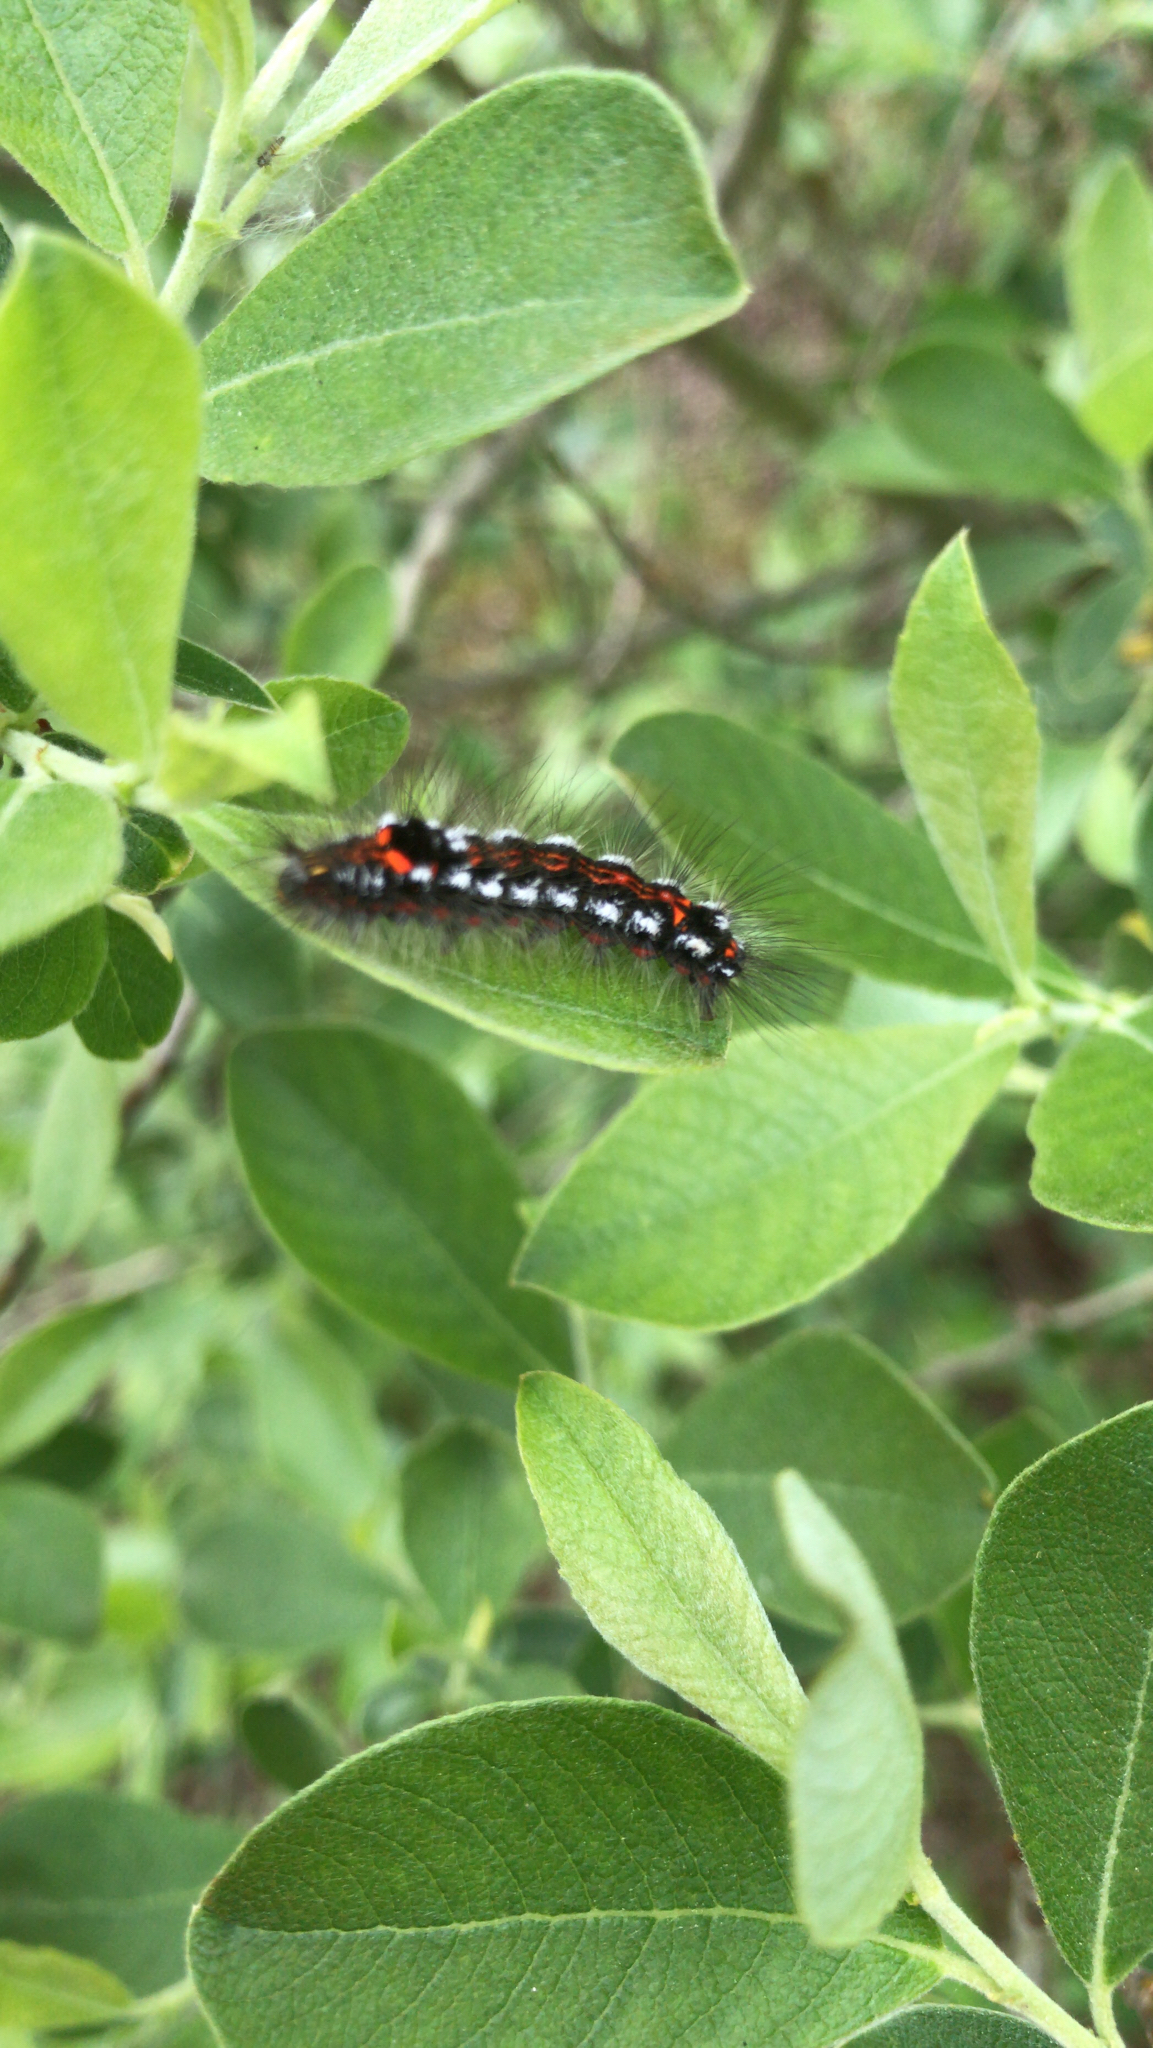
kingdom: Animalia
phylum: Arthropoda
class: Insecta
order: Lepidoptera
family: Erebidae
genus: Sphrageidus
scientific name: Sphrageidus similis
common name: Yellow-tail
